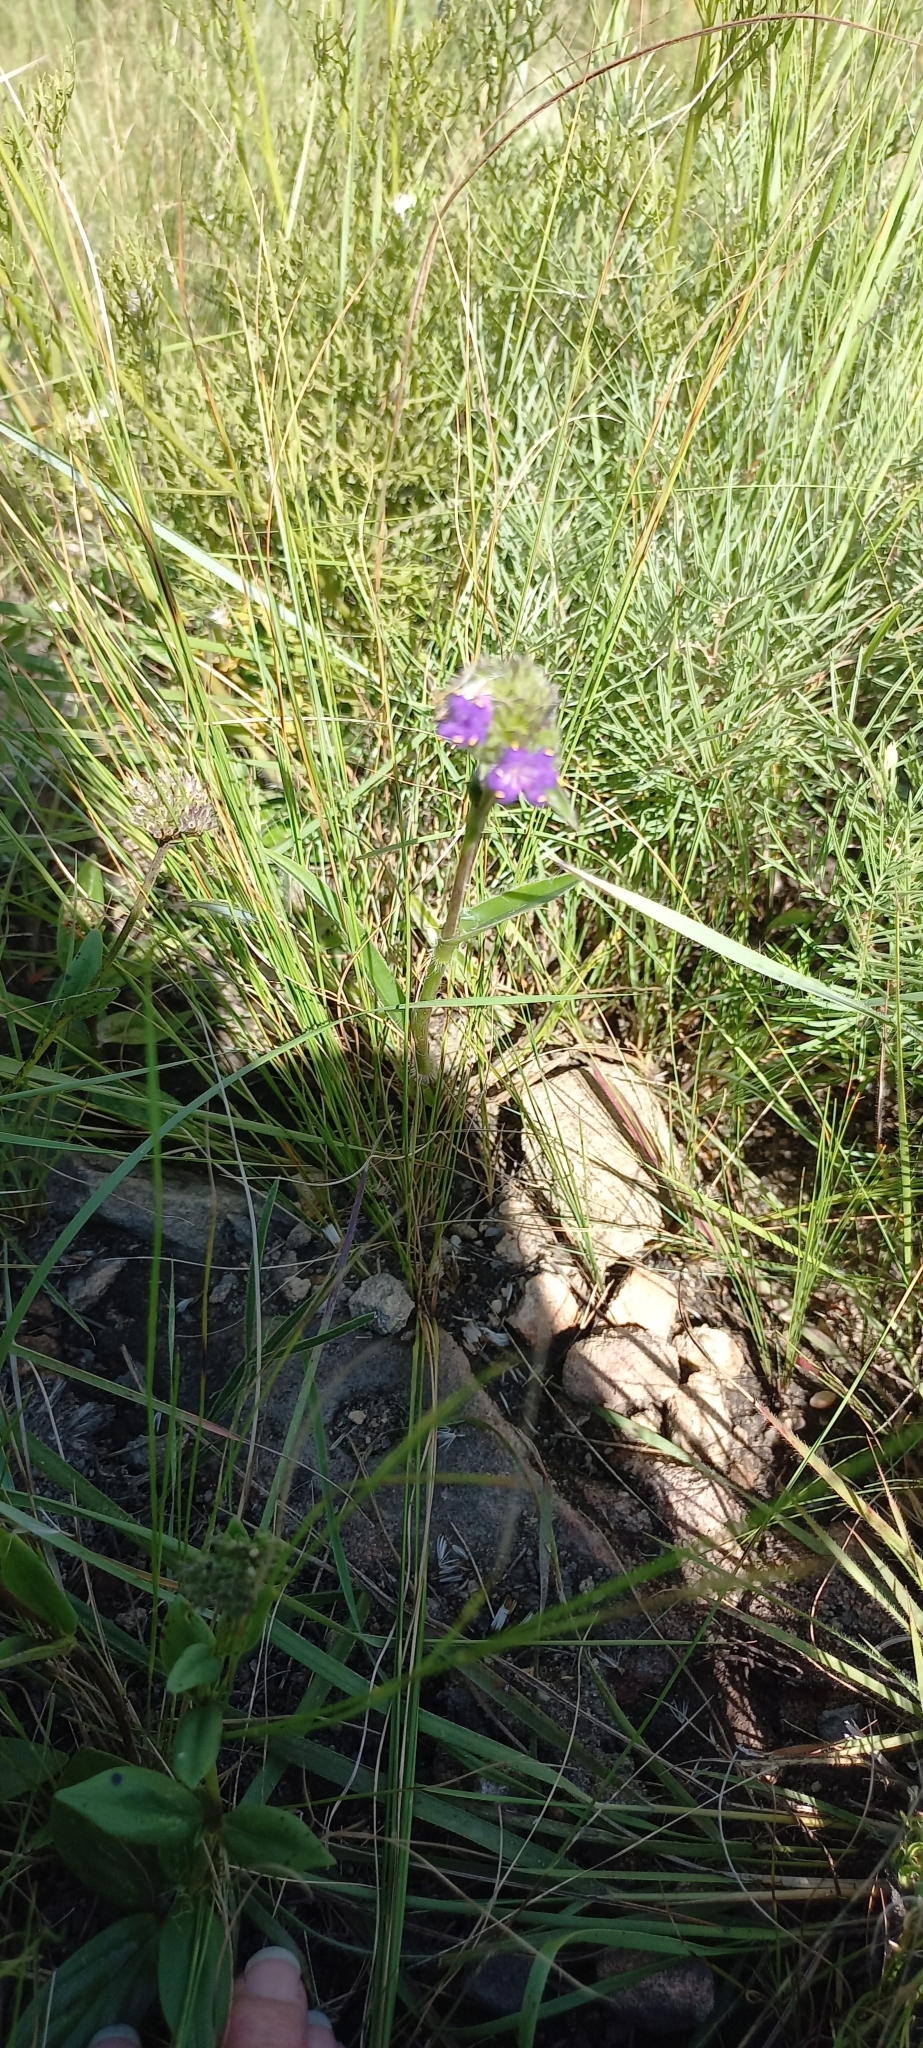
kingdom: Plantae
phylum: Tracheophyta
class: Liliopsida
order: Commelinales
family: Commelinaceae
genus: Cyanotis
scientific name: Cyanotis speciosa
